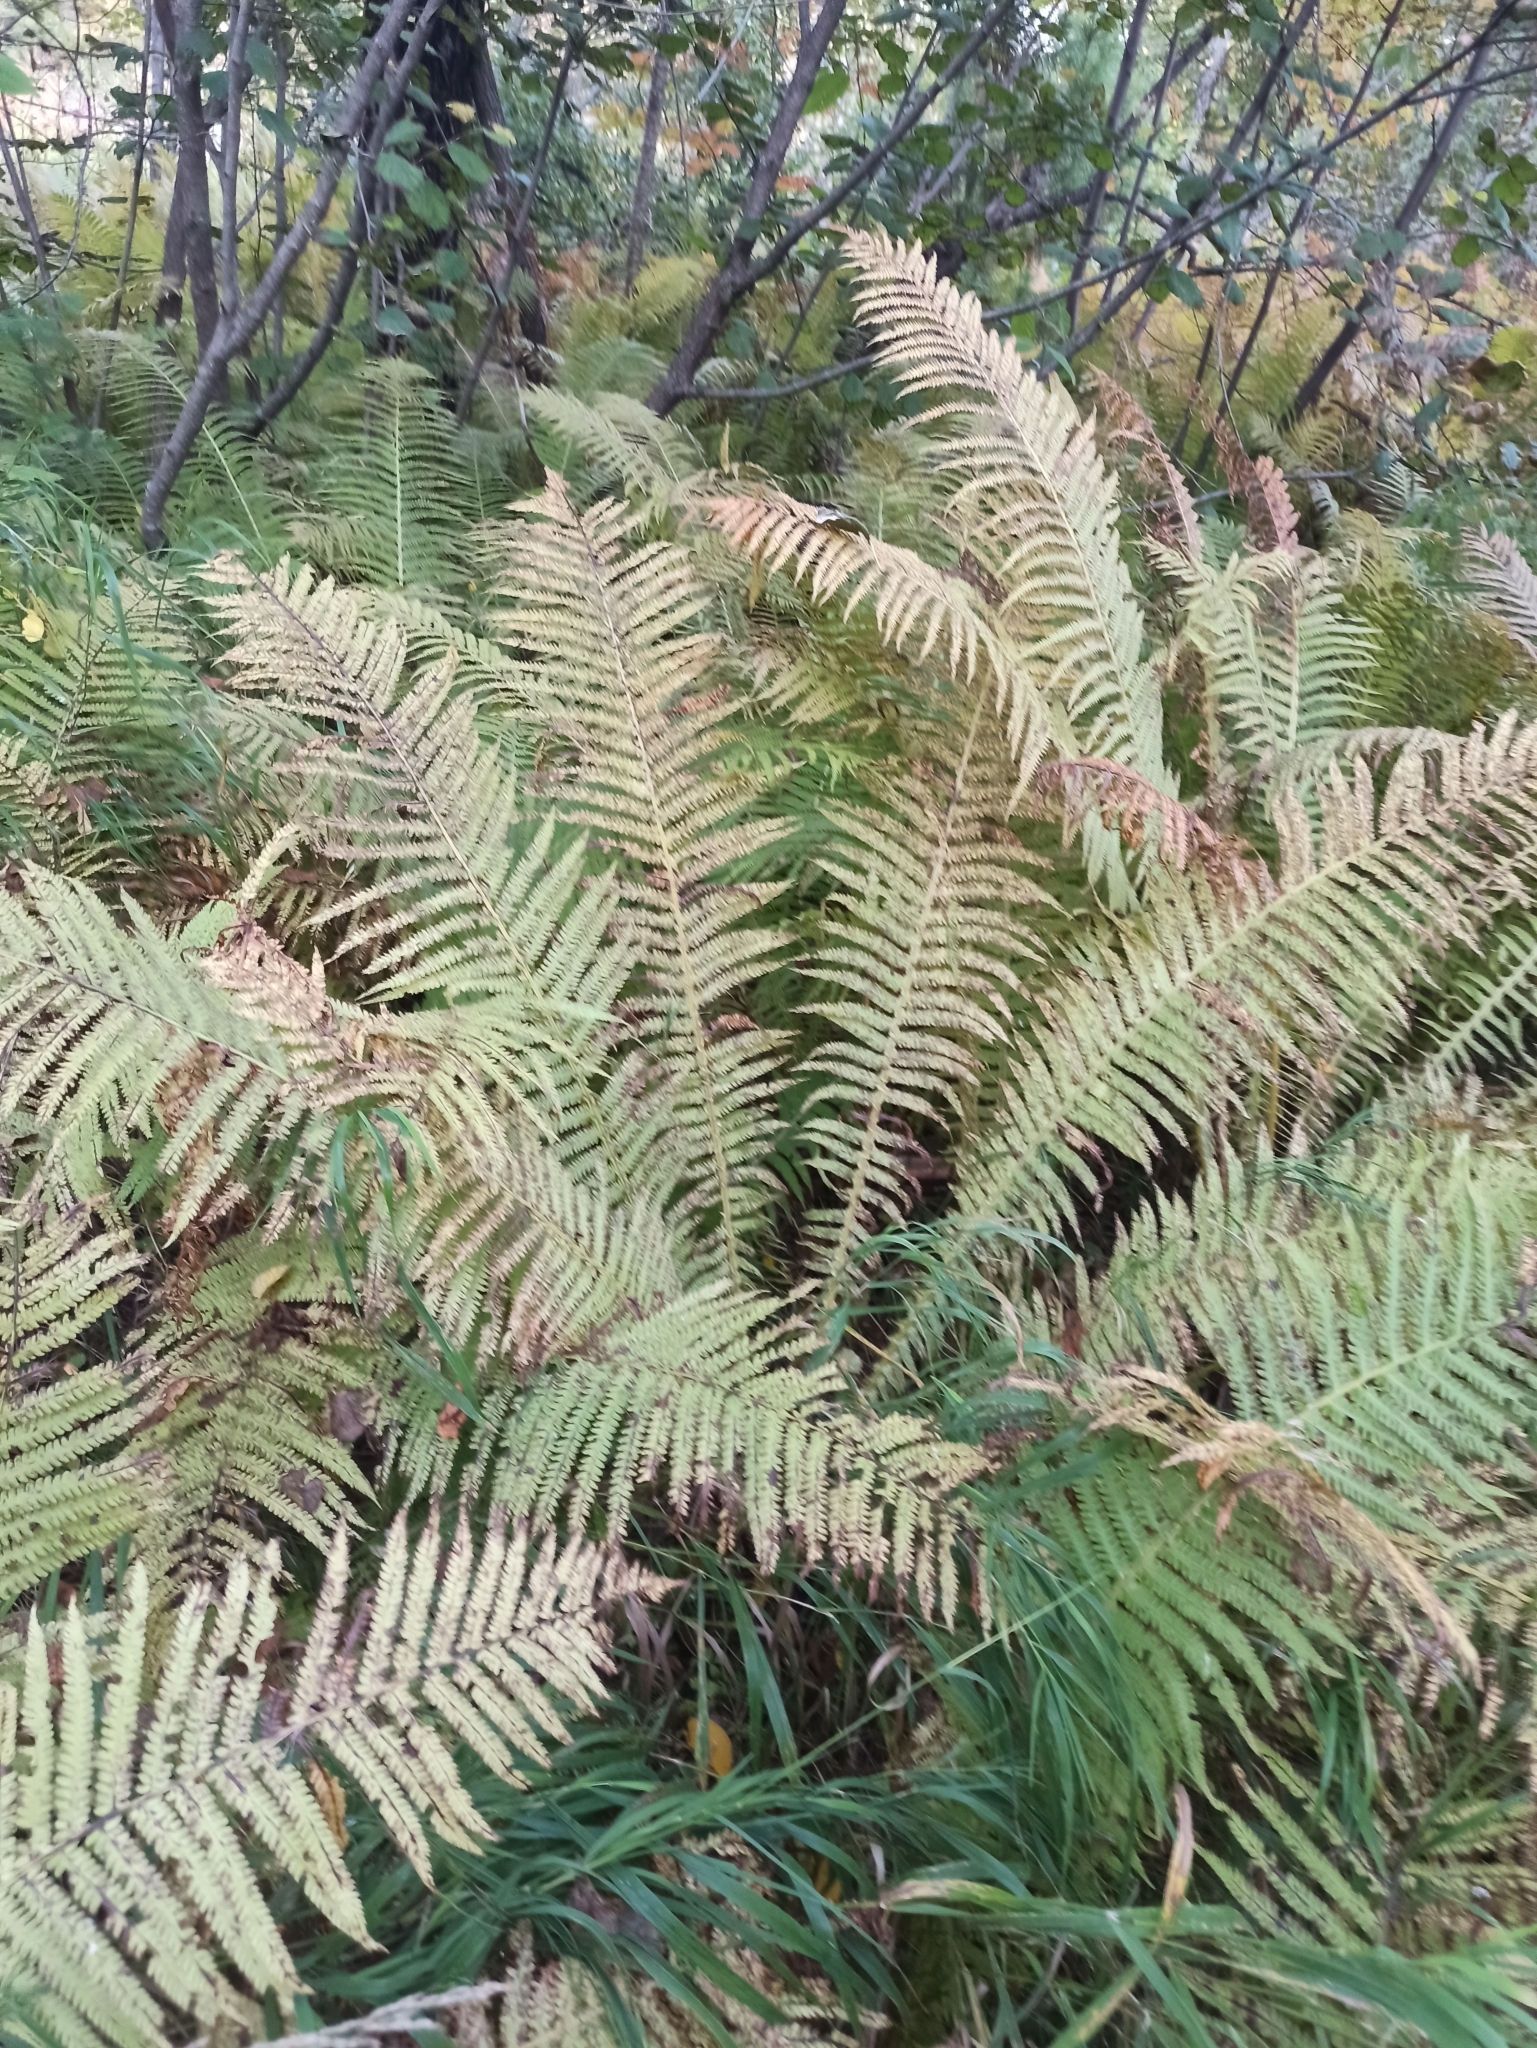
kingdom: Plantae
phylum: Tracheophyta
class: Polypodiopsida
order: Polypodiales
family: Onocleaceae
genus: Matteuccia
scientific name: Matteuccia struthiopteris
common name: Ostrich fern
